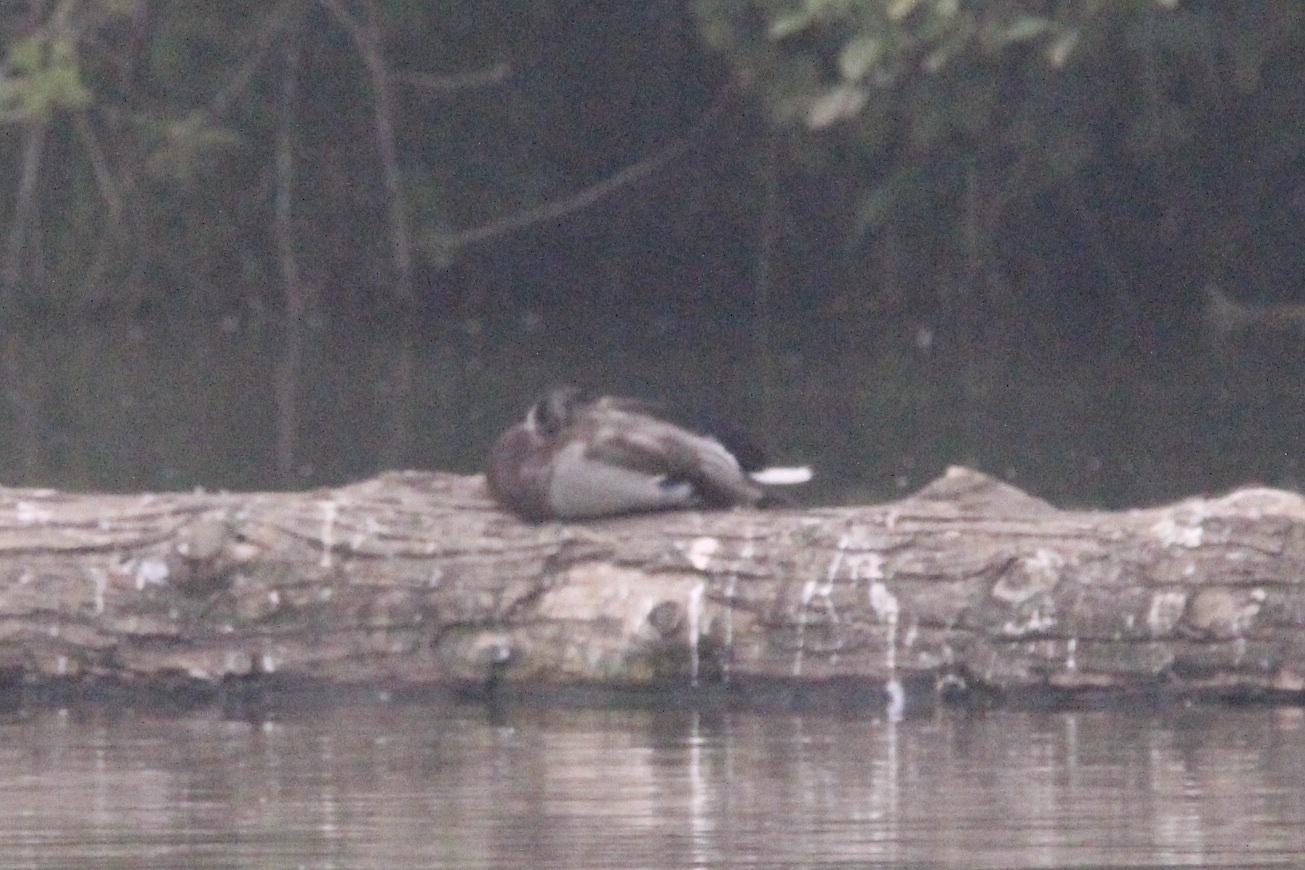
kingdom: Animalia
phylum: Chordata
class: Aves
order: Anseriformes
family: Anatidae
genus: Anas
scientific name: Anas platyrhynchos
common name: Mallard
